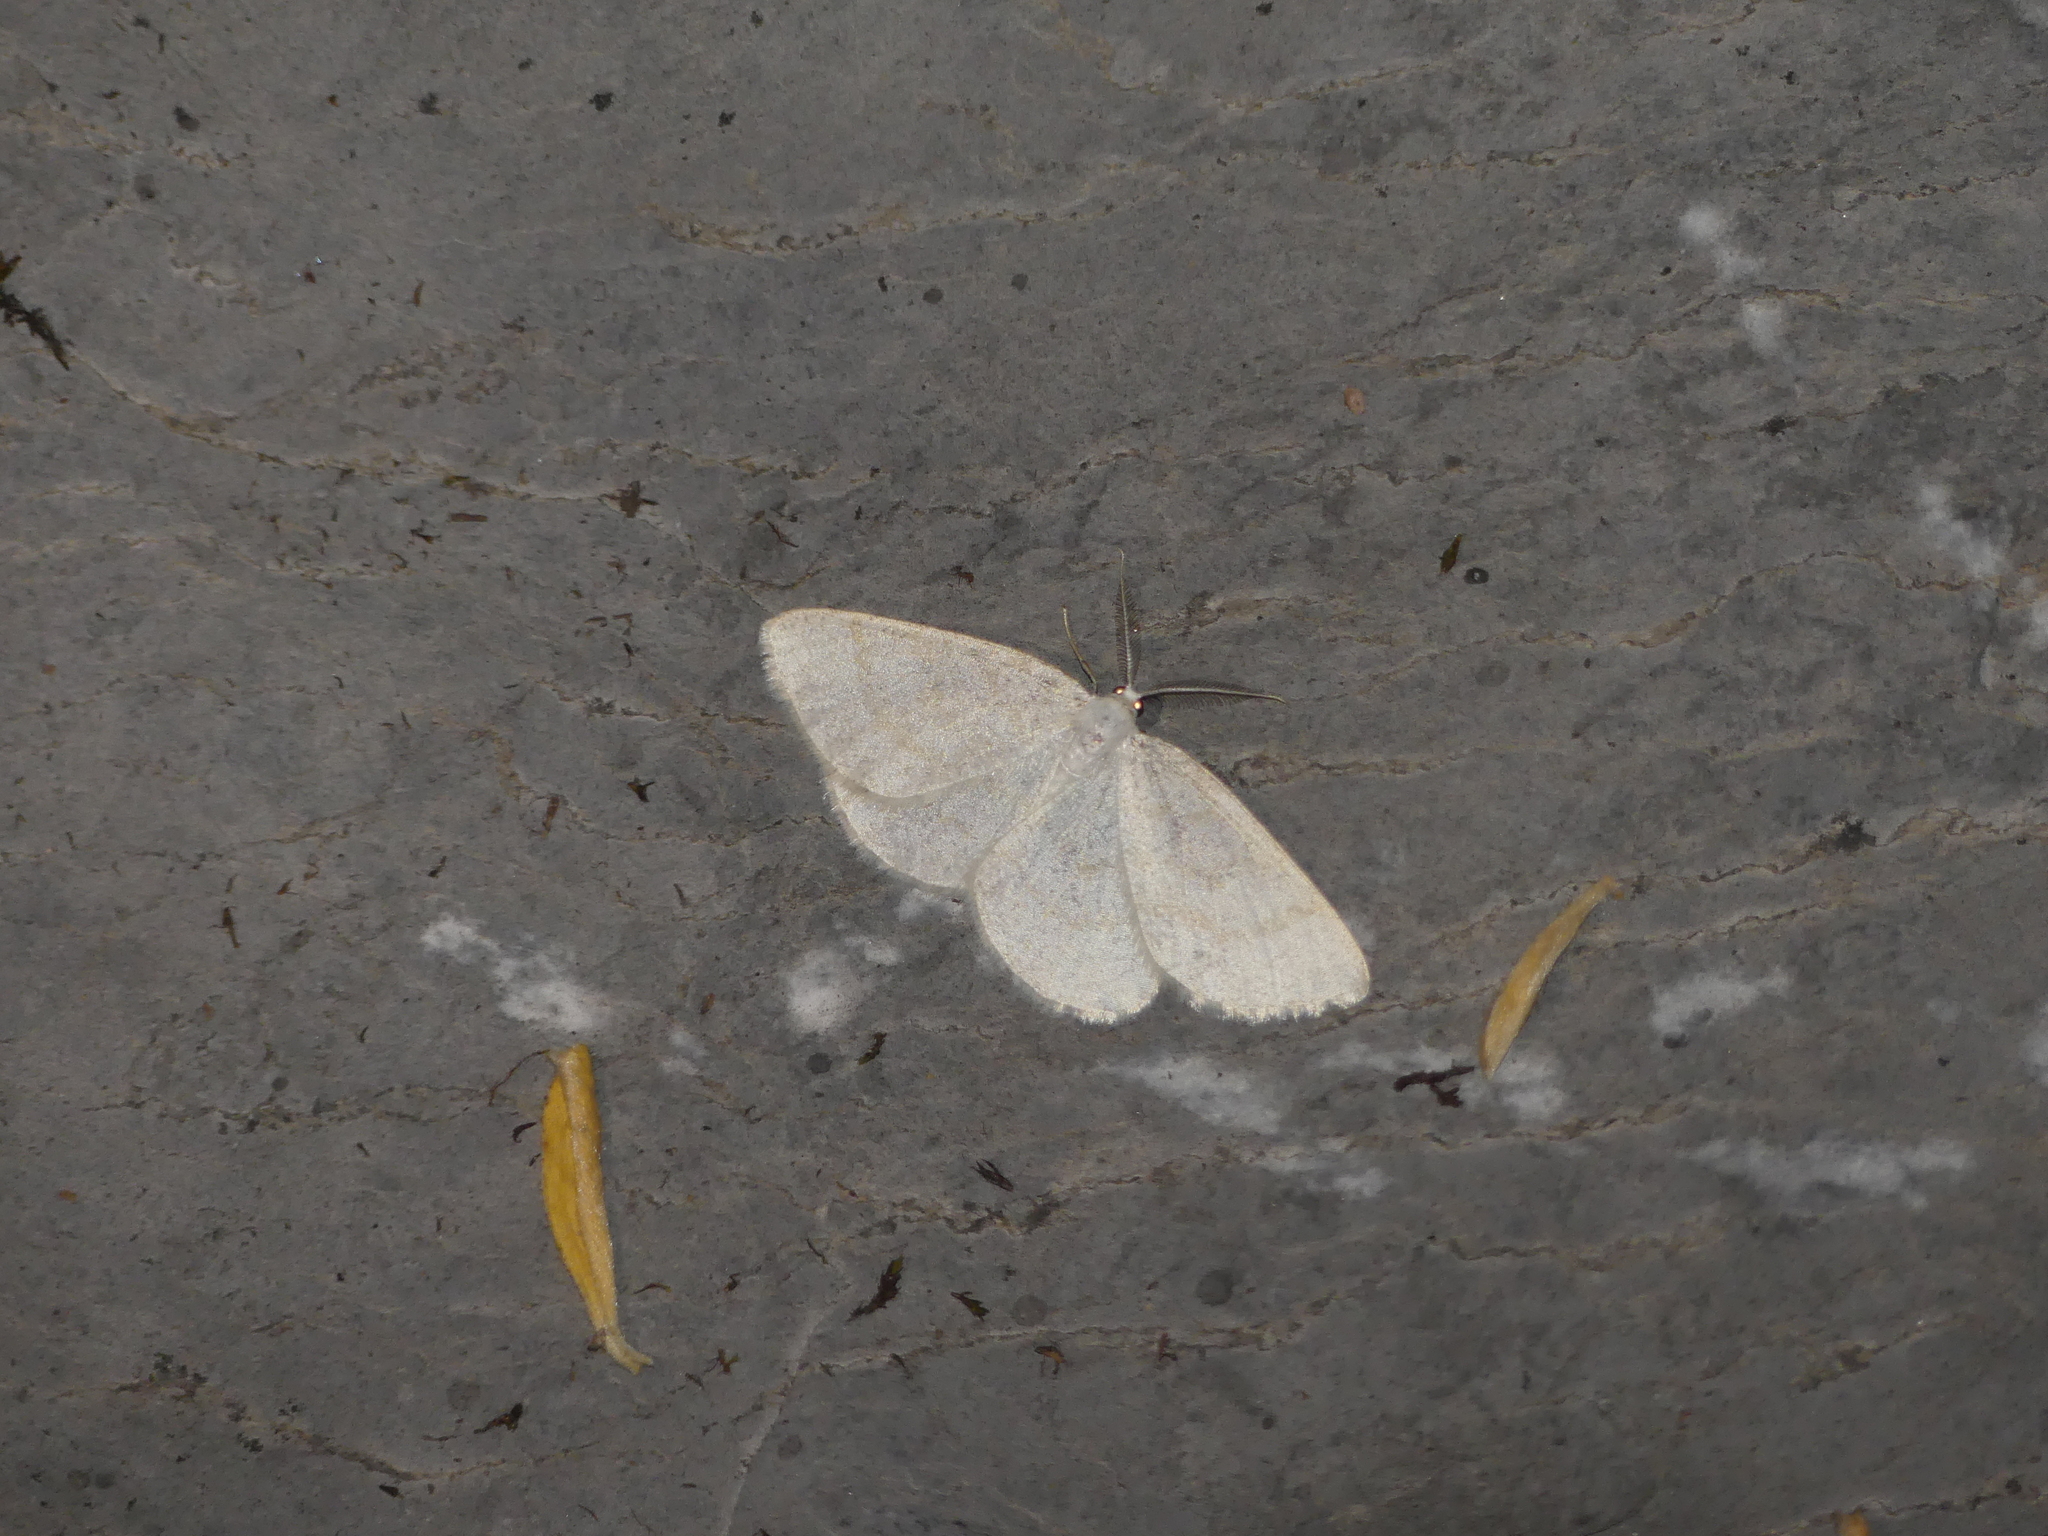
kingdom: Animalia
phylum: Arthropoda
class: Insecta
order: Lepidoptera
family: Geometridae
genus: Cabera
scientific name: Cabera exanthemata
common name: Common wave
